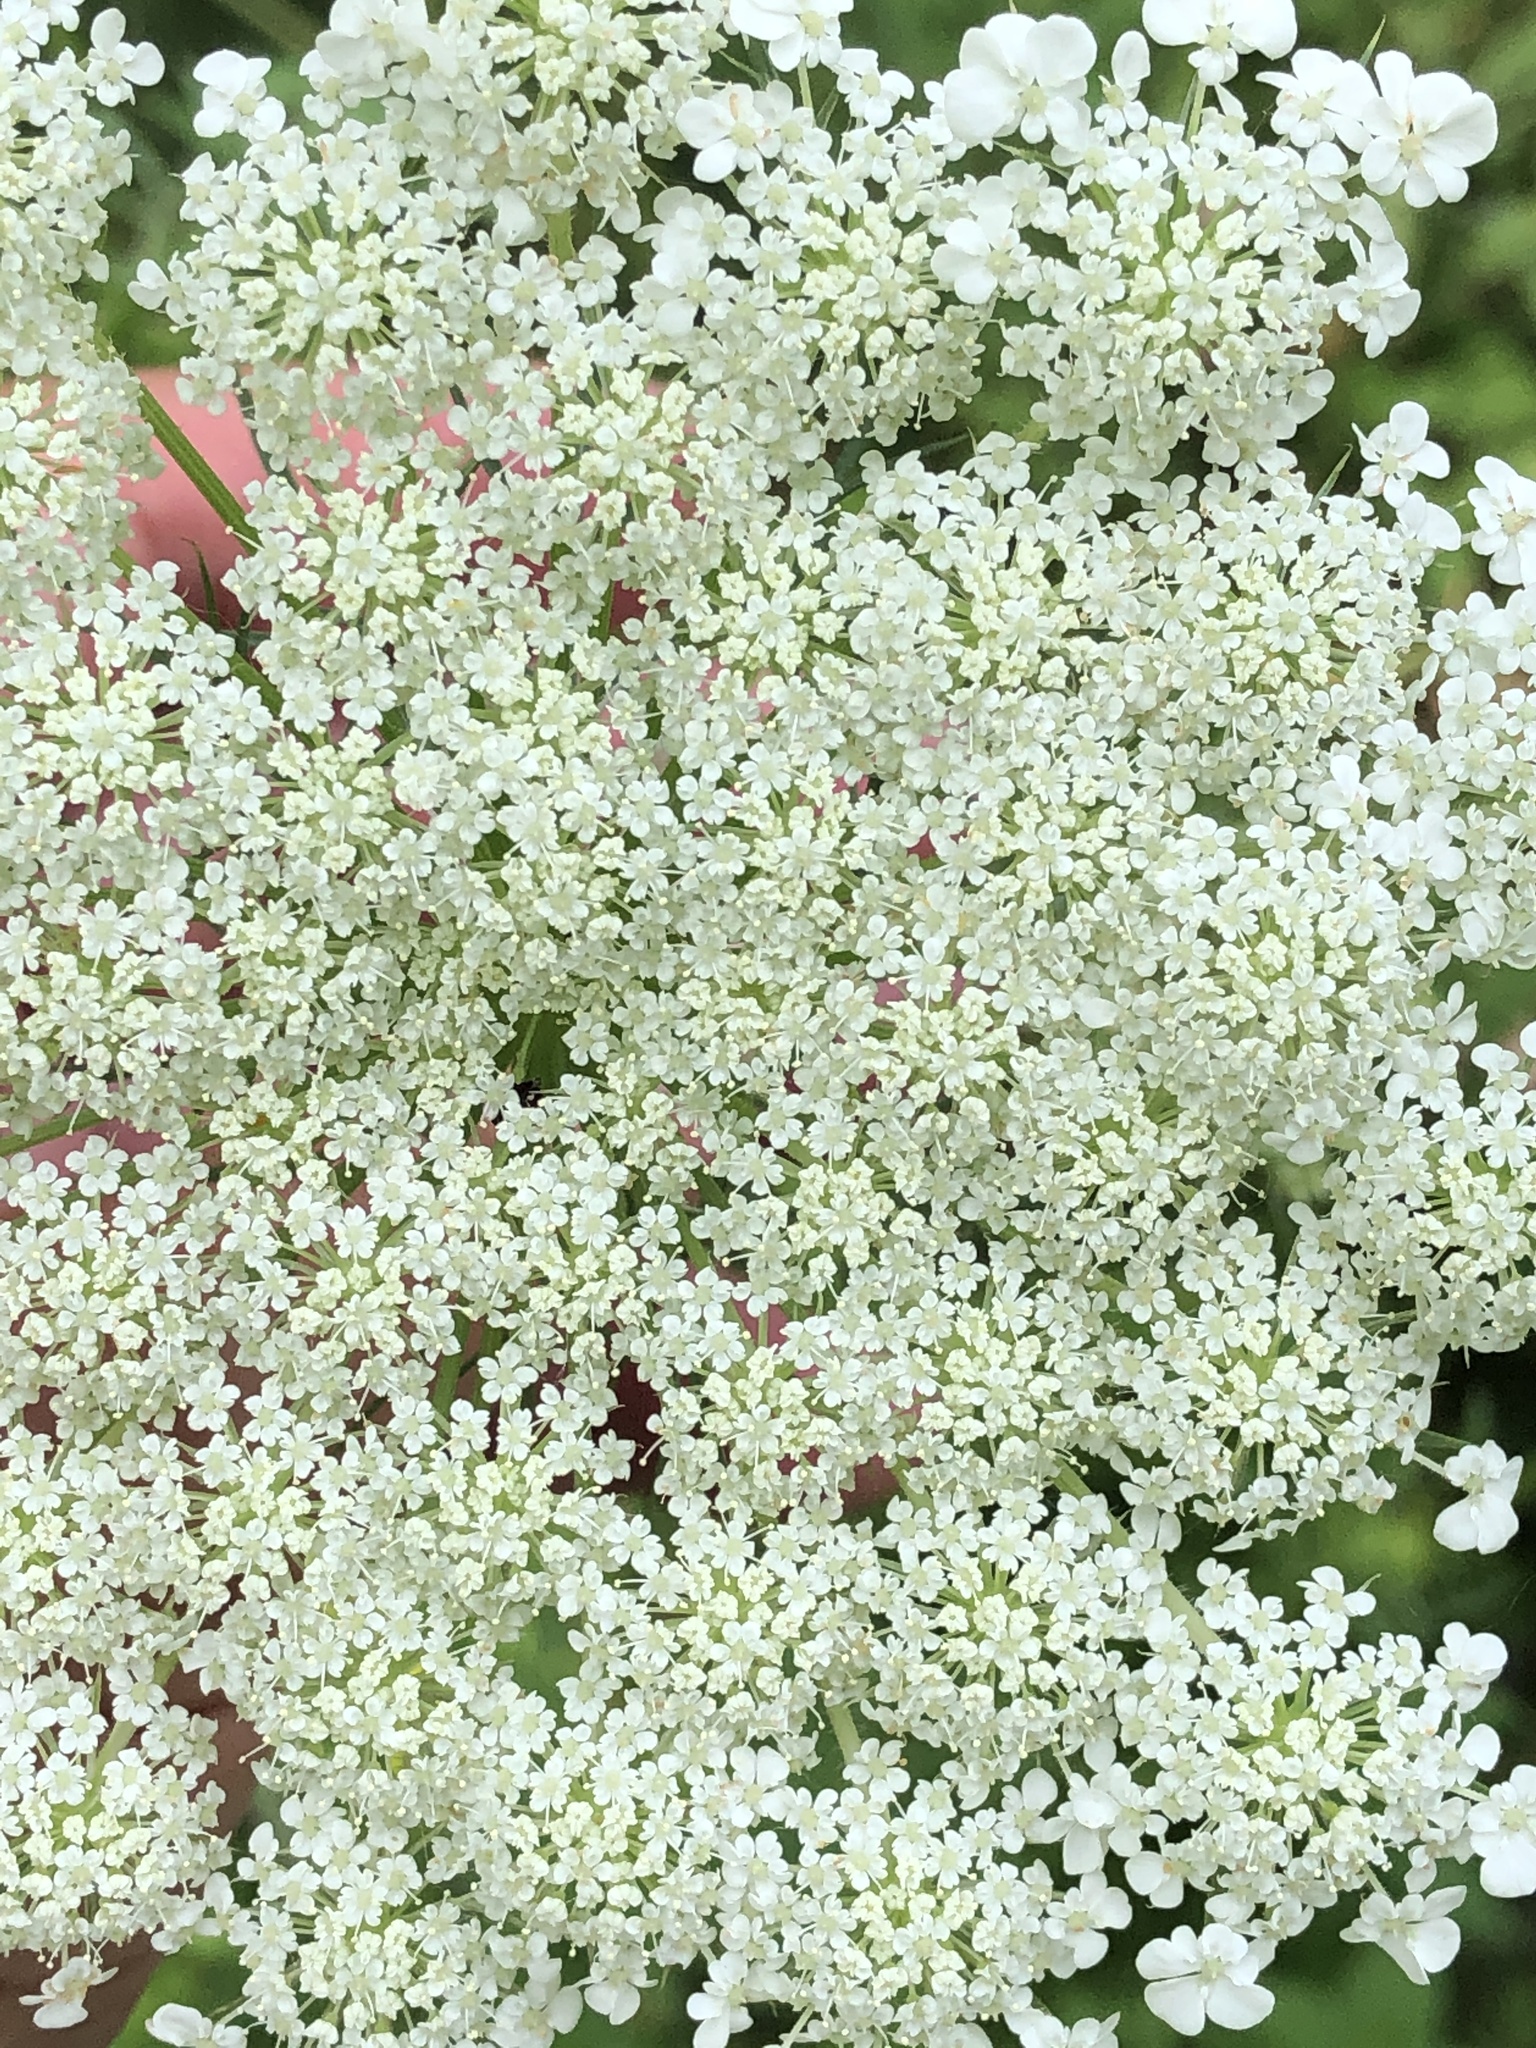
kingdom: Plantae
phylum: Tracheophyta
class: Magnoliopsida
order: Apiales
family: Apiaceae
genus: Daucus
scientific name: Daucus carota
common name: Wild carrot
